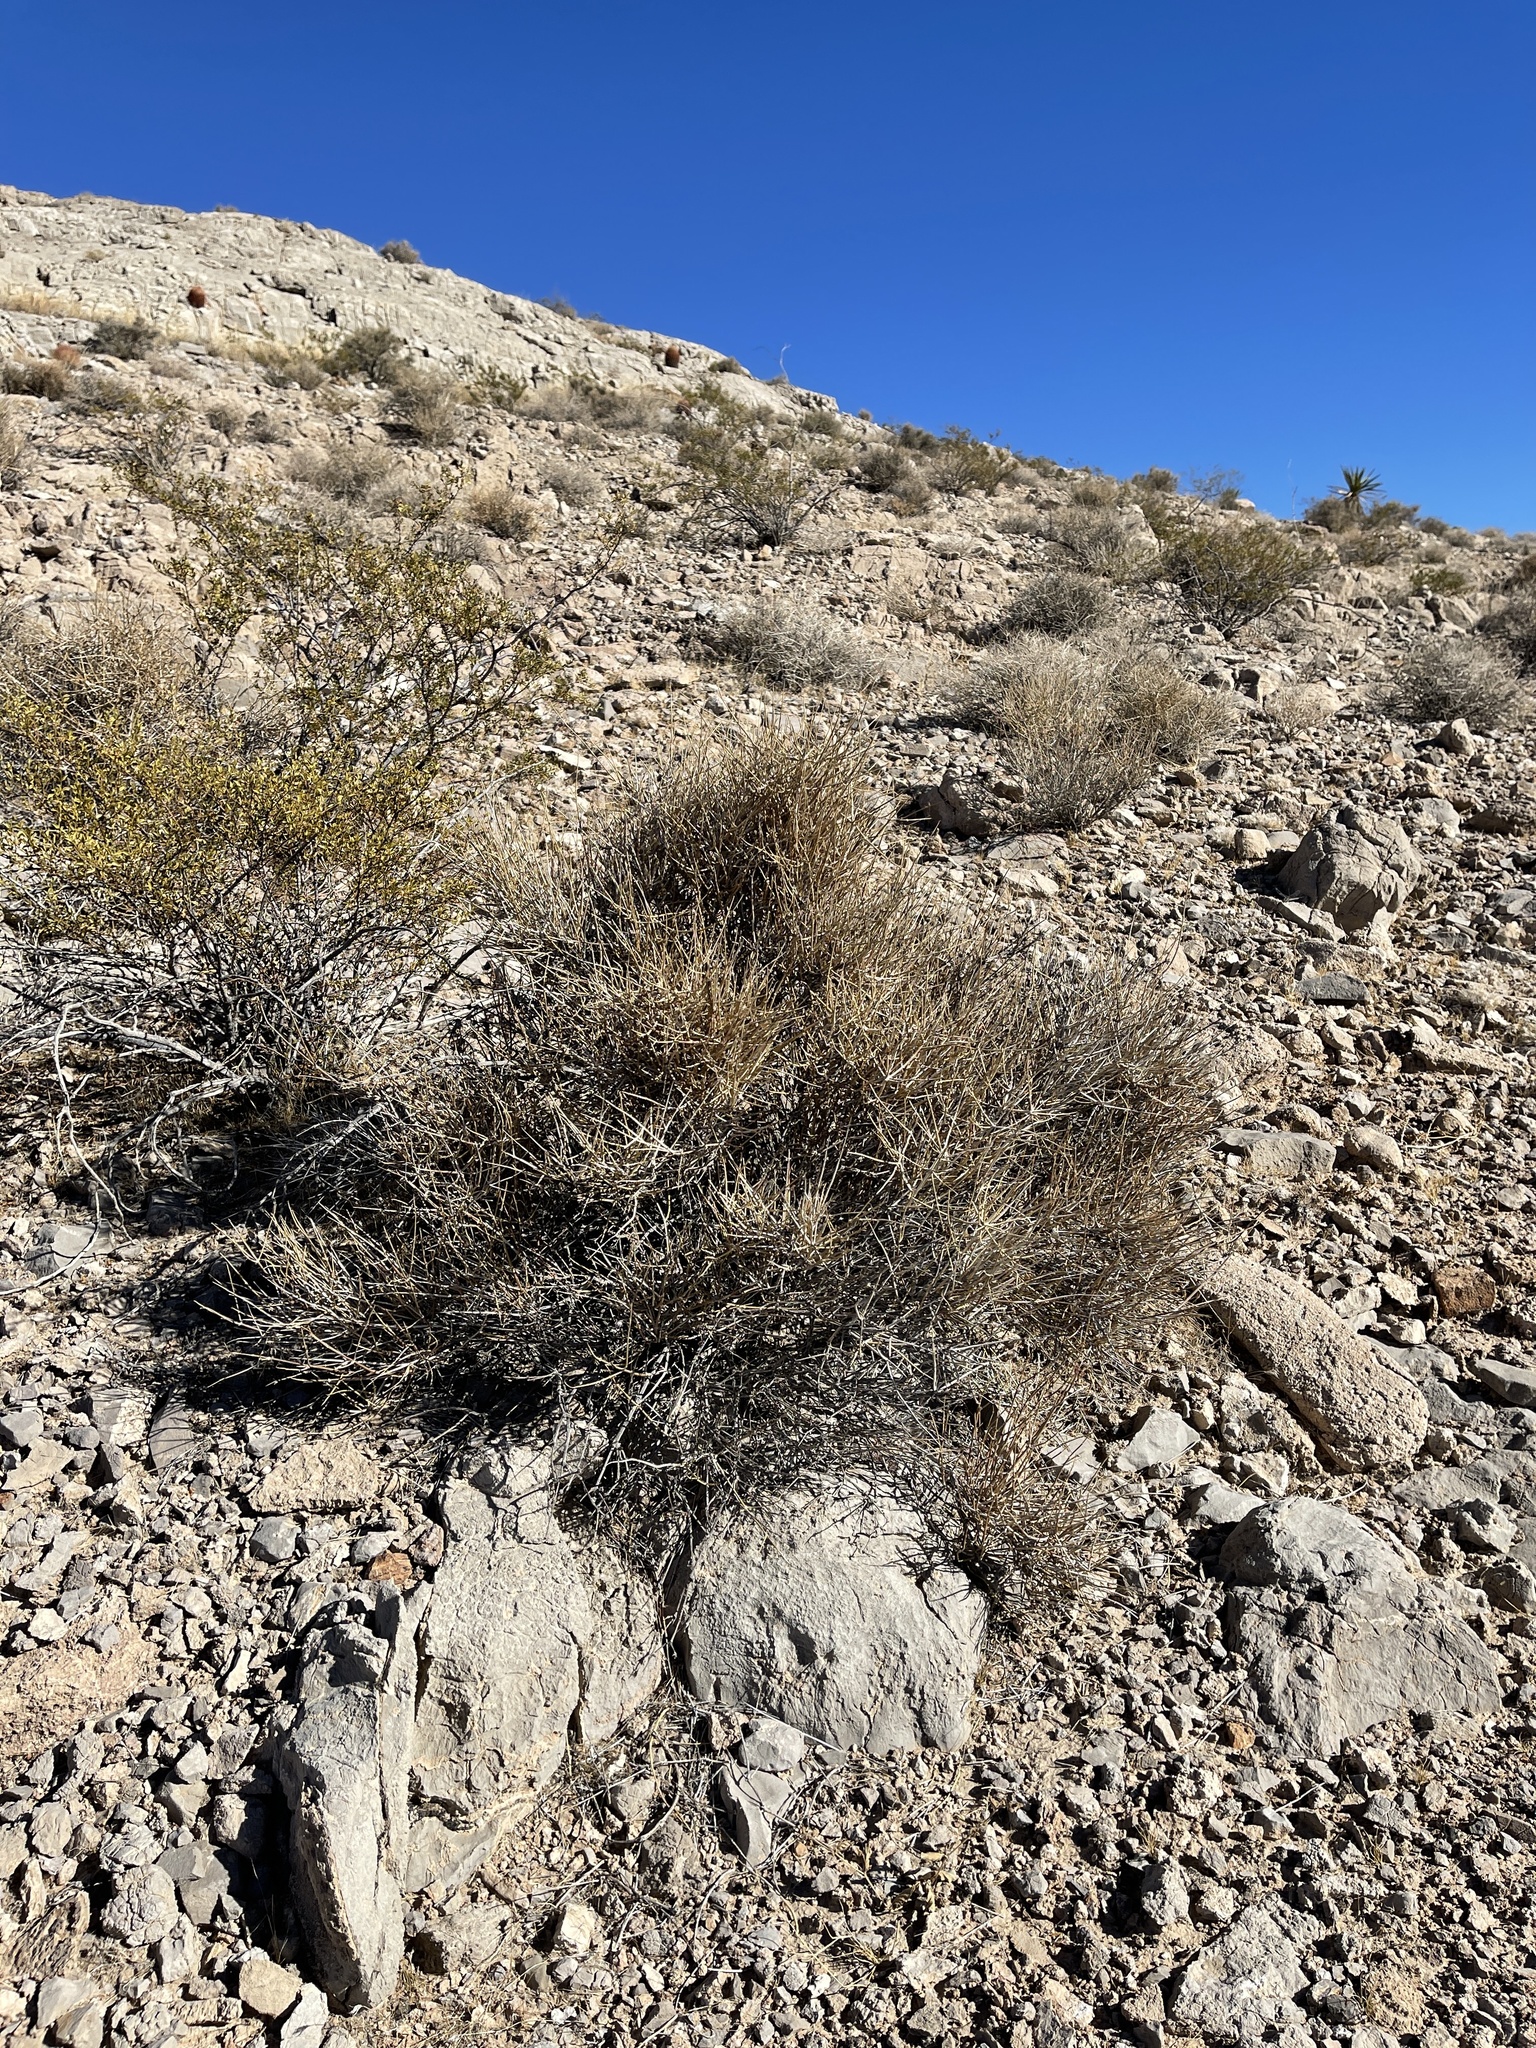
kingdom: Plantae
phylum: Tracheophyta
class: Gnetopsida
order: Ephedrales
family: Ephedraceae
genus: Ephedra
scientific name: Ephedra nevadensis
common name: Gray ephedra
